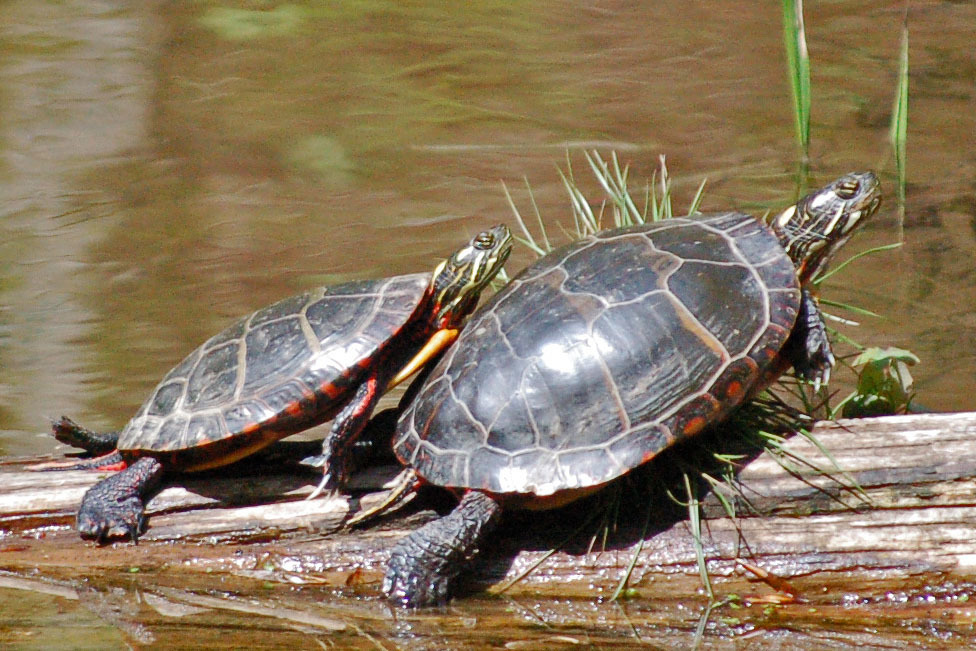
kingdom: Animalia
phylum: Chordata
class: Testudines
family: Emydidae
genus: Chrysemys
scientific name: Chrysemys picta
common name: Painted turtle
